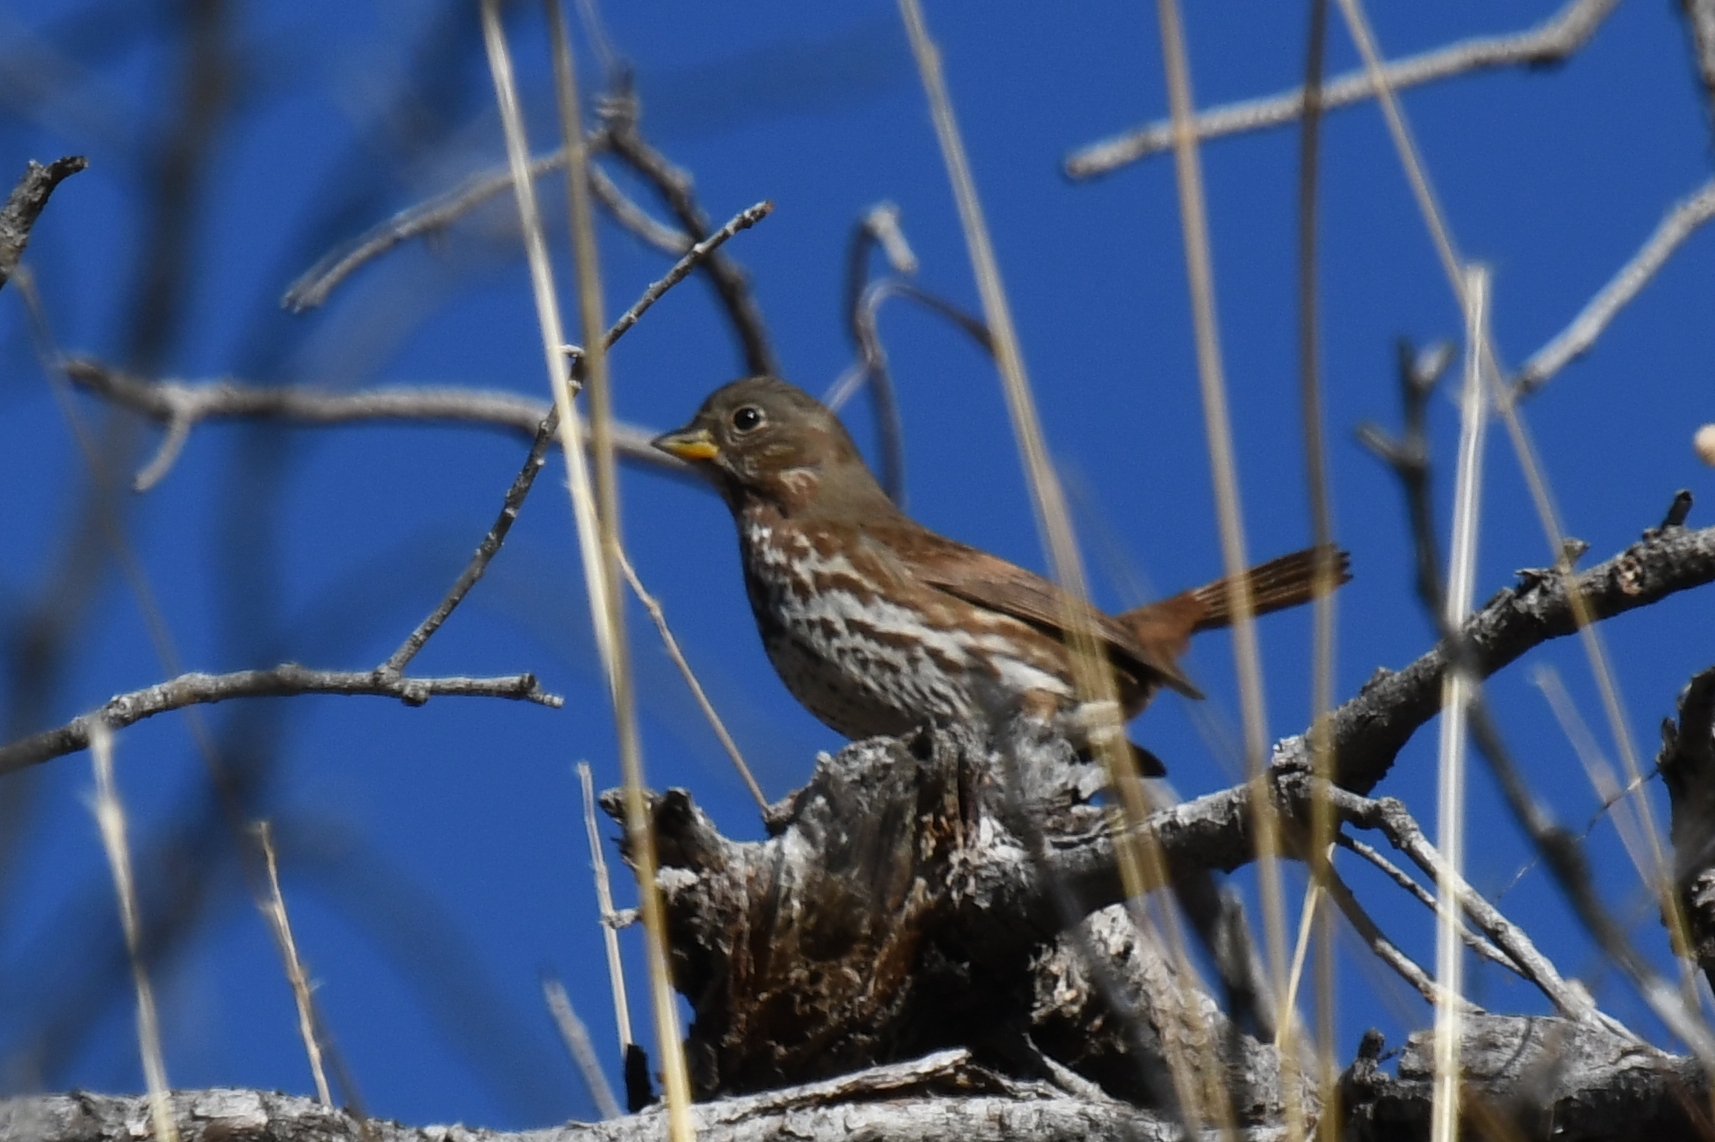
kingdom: Animalia
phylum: Chordata
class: Aves
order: Passeriformes
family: Passerellidae
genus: Passerella
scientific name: Passerella iliaca
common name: Fox sparrow
